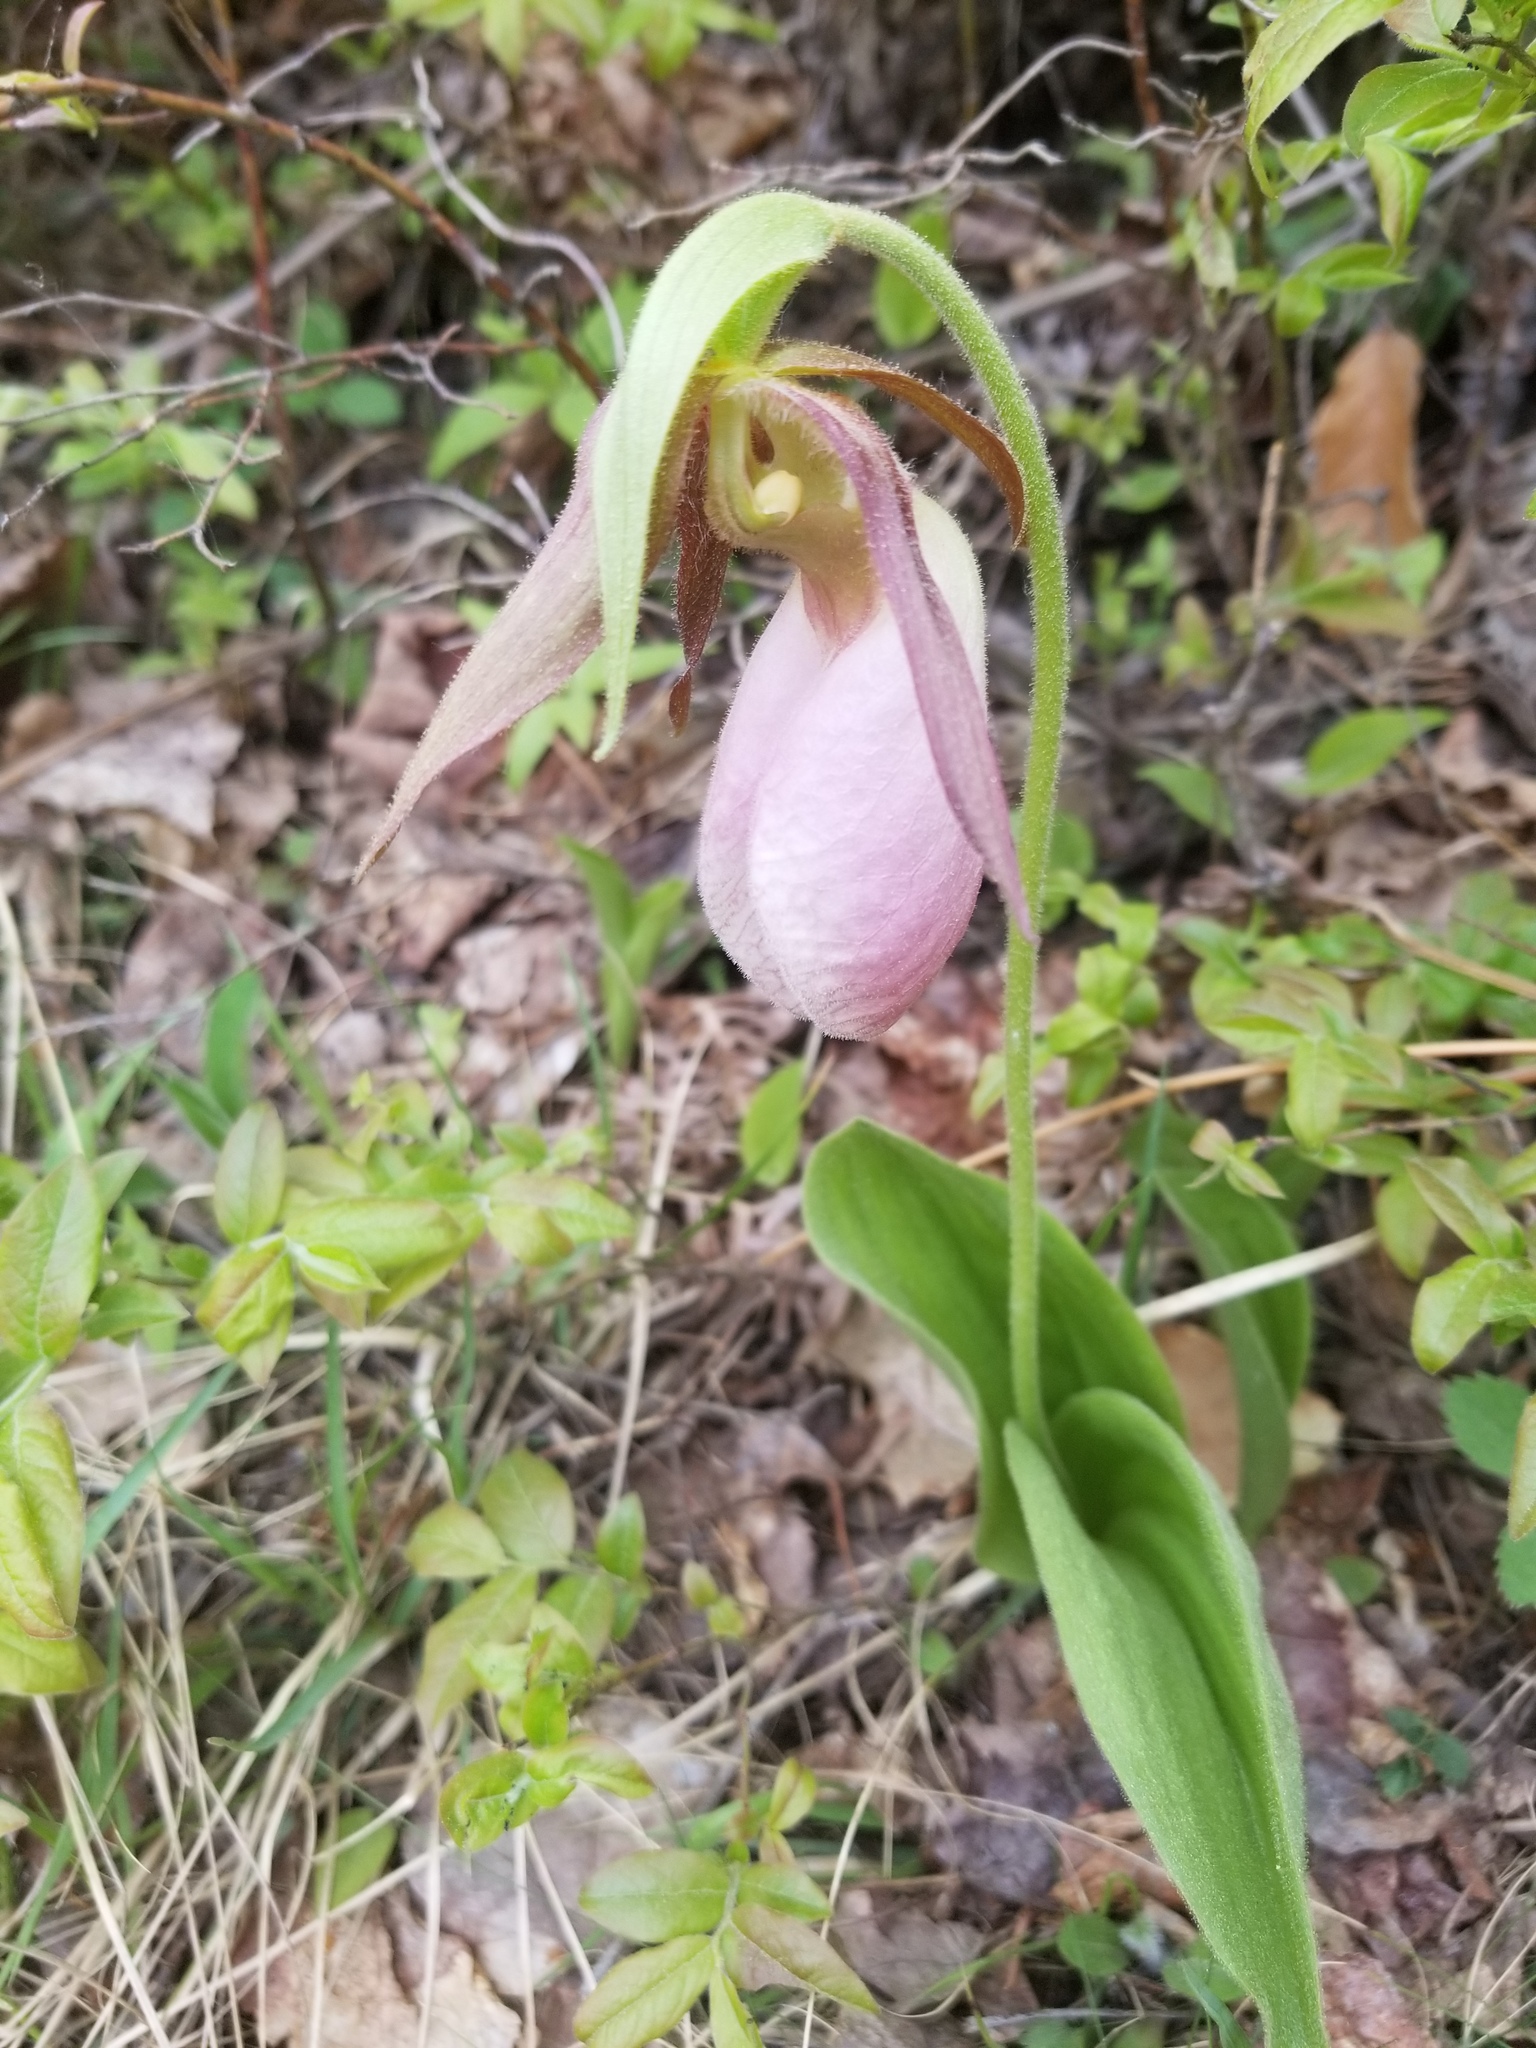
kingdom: Plantae
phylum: Tracheophyta
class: Liliopsida
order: Asparagales
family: Orchidaceae
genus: Cypripedium
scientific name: Cypripedium acaule
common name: Pink lady's-slipper
